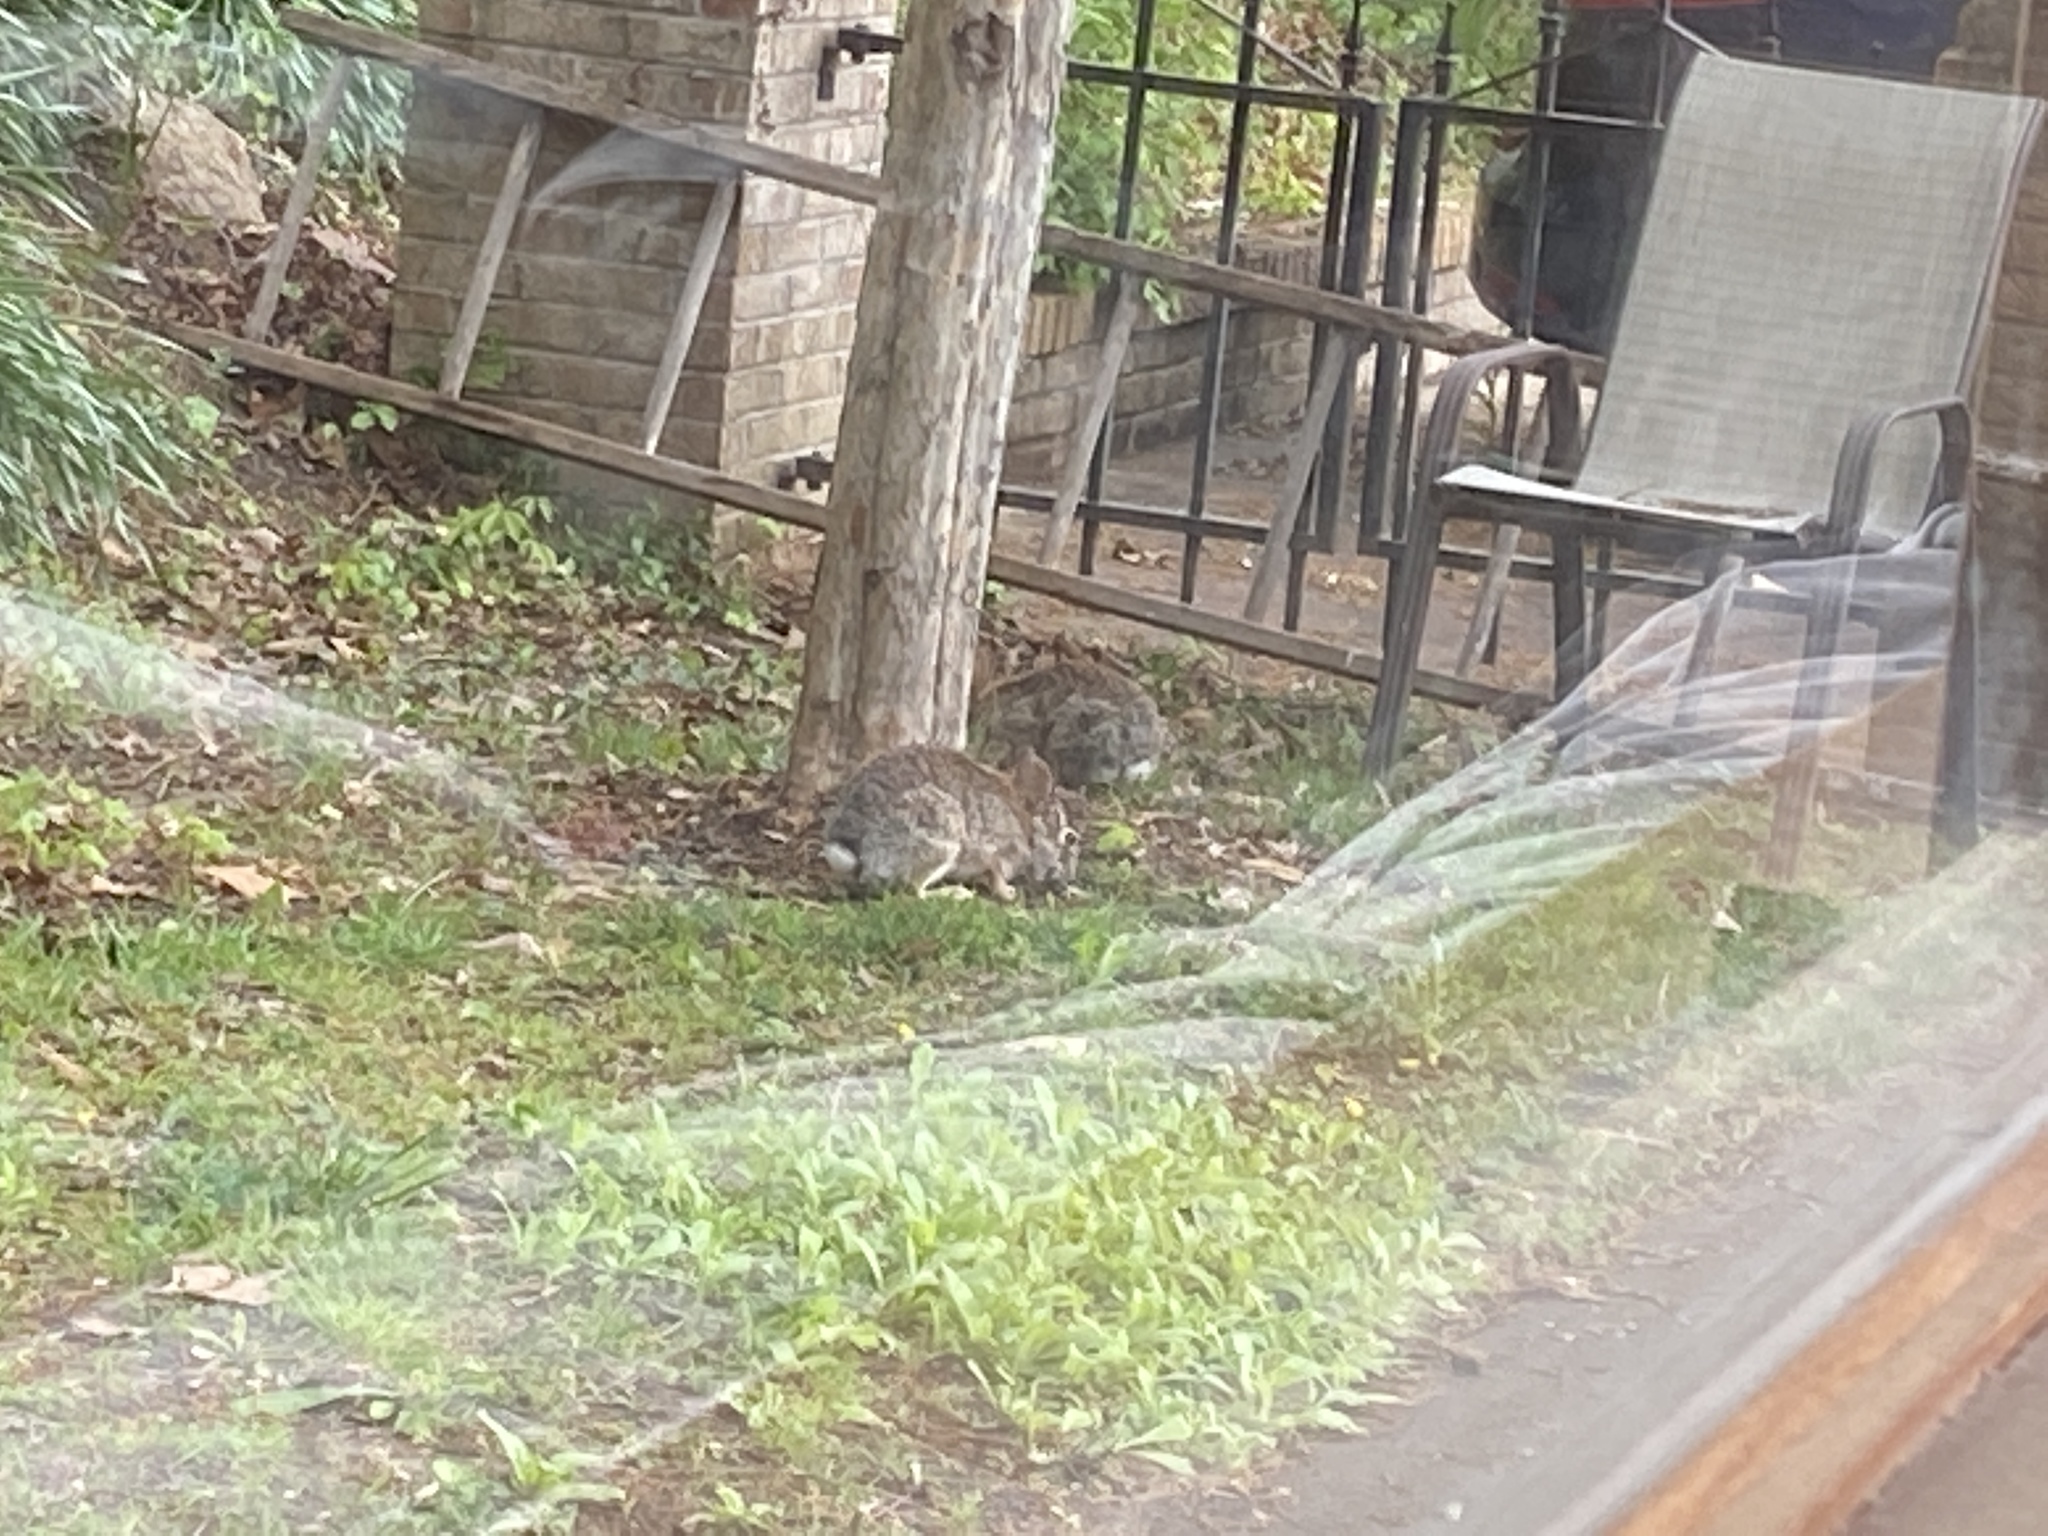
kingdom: Animalia
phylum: Chordata
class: Mammalia
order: Lagomorpha
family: Leporidae
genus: Sylvilagus
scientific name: Sylvilagus floridanus
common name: Eastern cottontail
